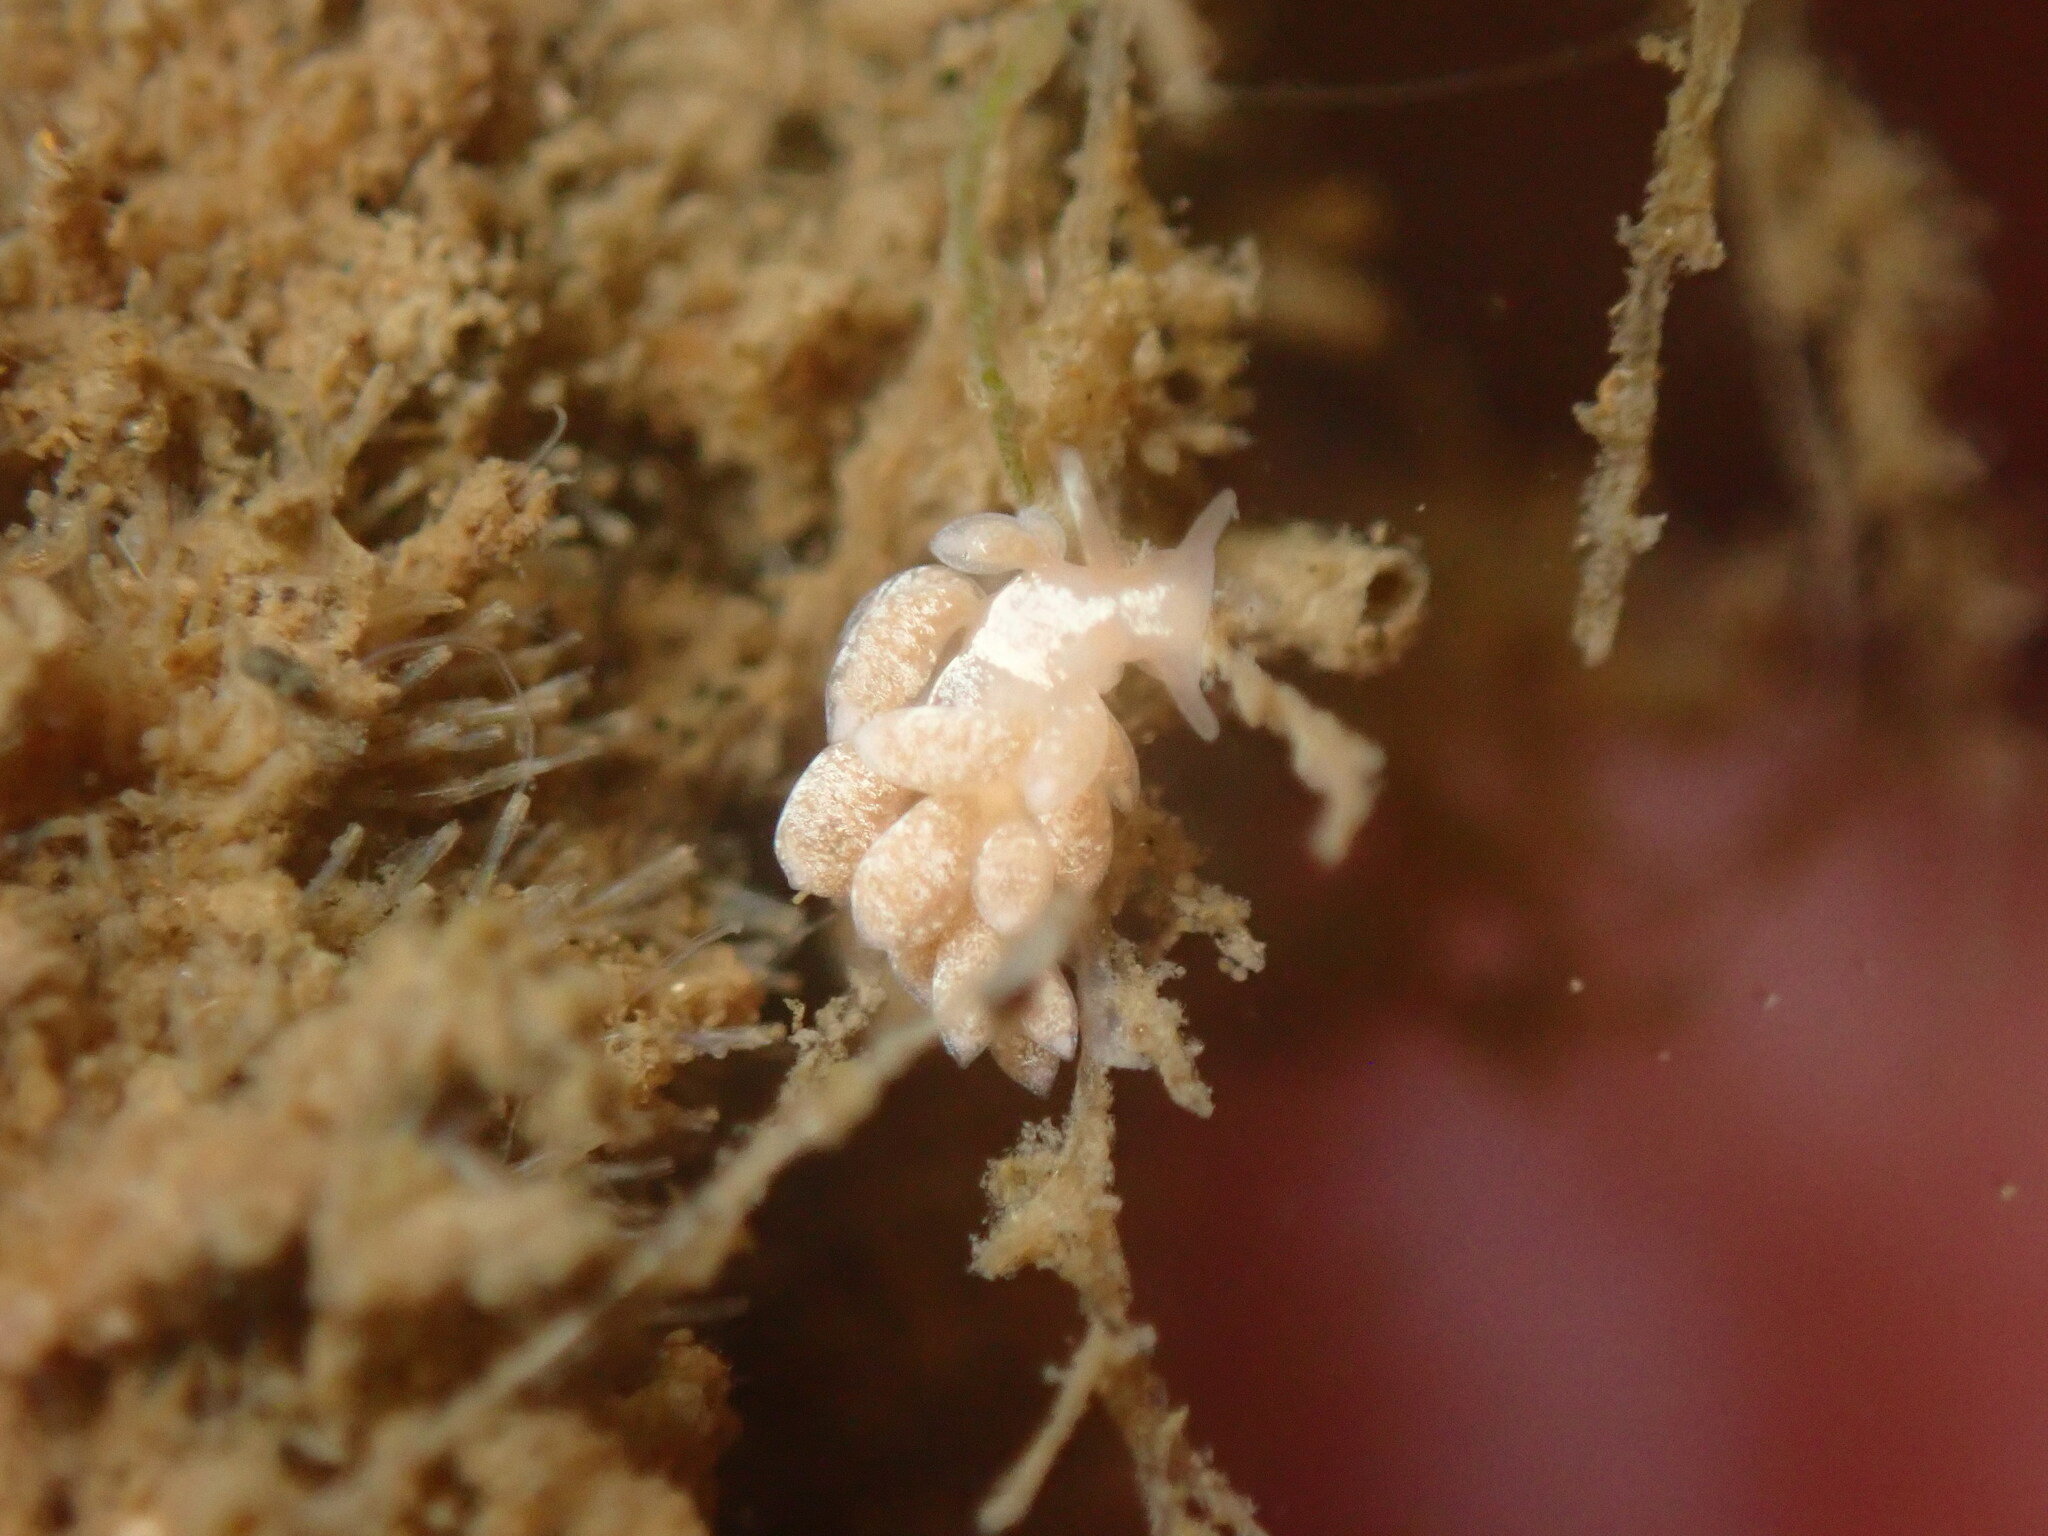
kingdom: Animalia
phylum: Mollusca
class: Gastropoda
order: Nudibranchia
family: Trinchesiidae
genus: Trinchesia
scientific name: Trinchesia albocrusta
